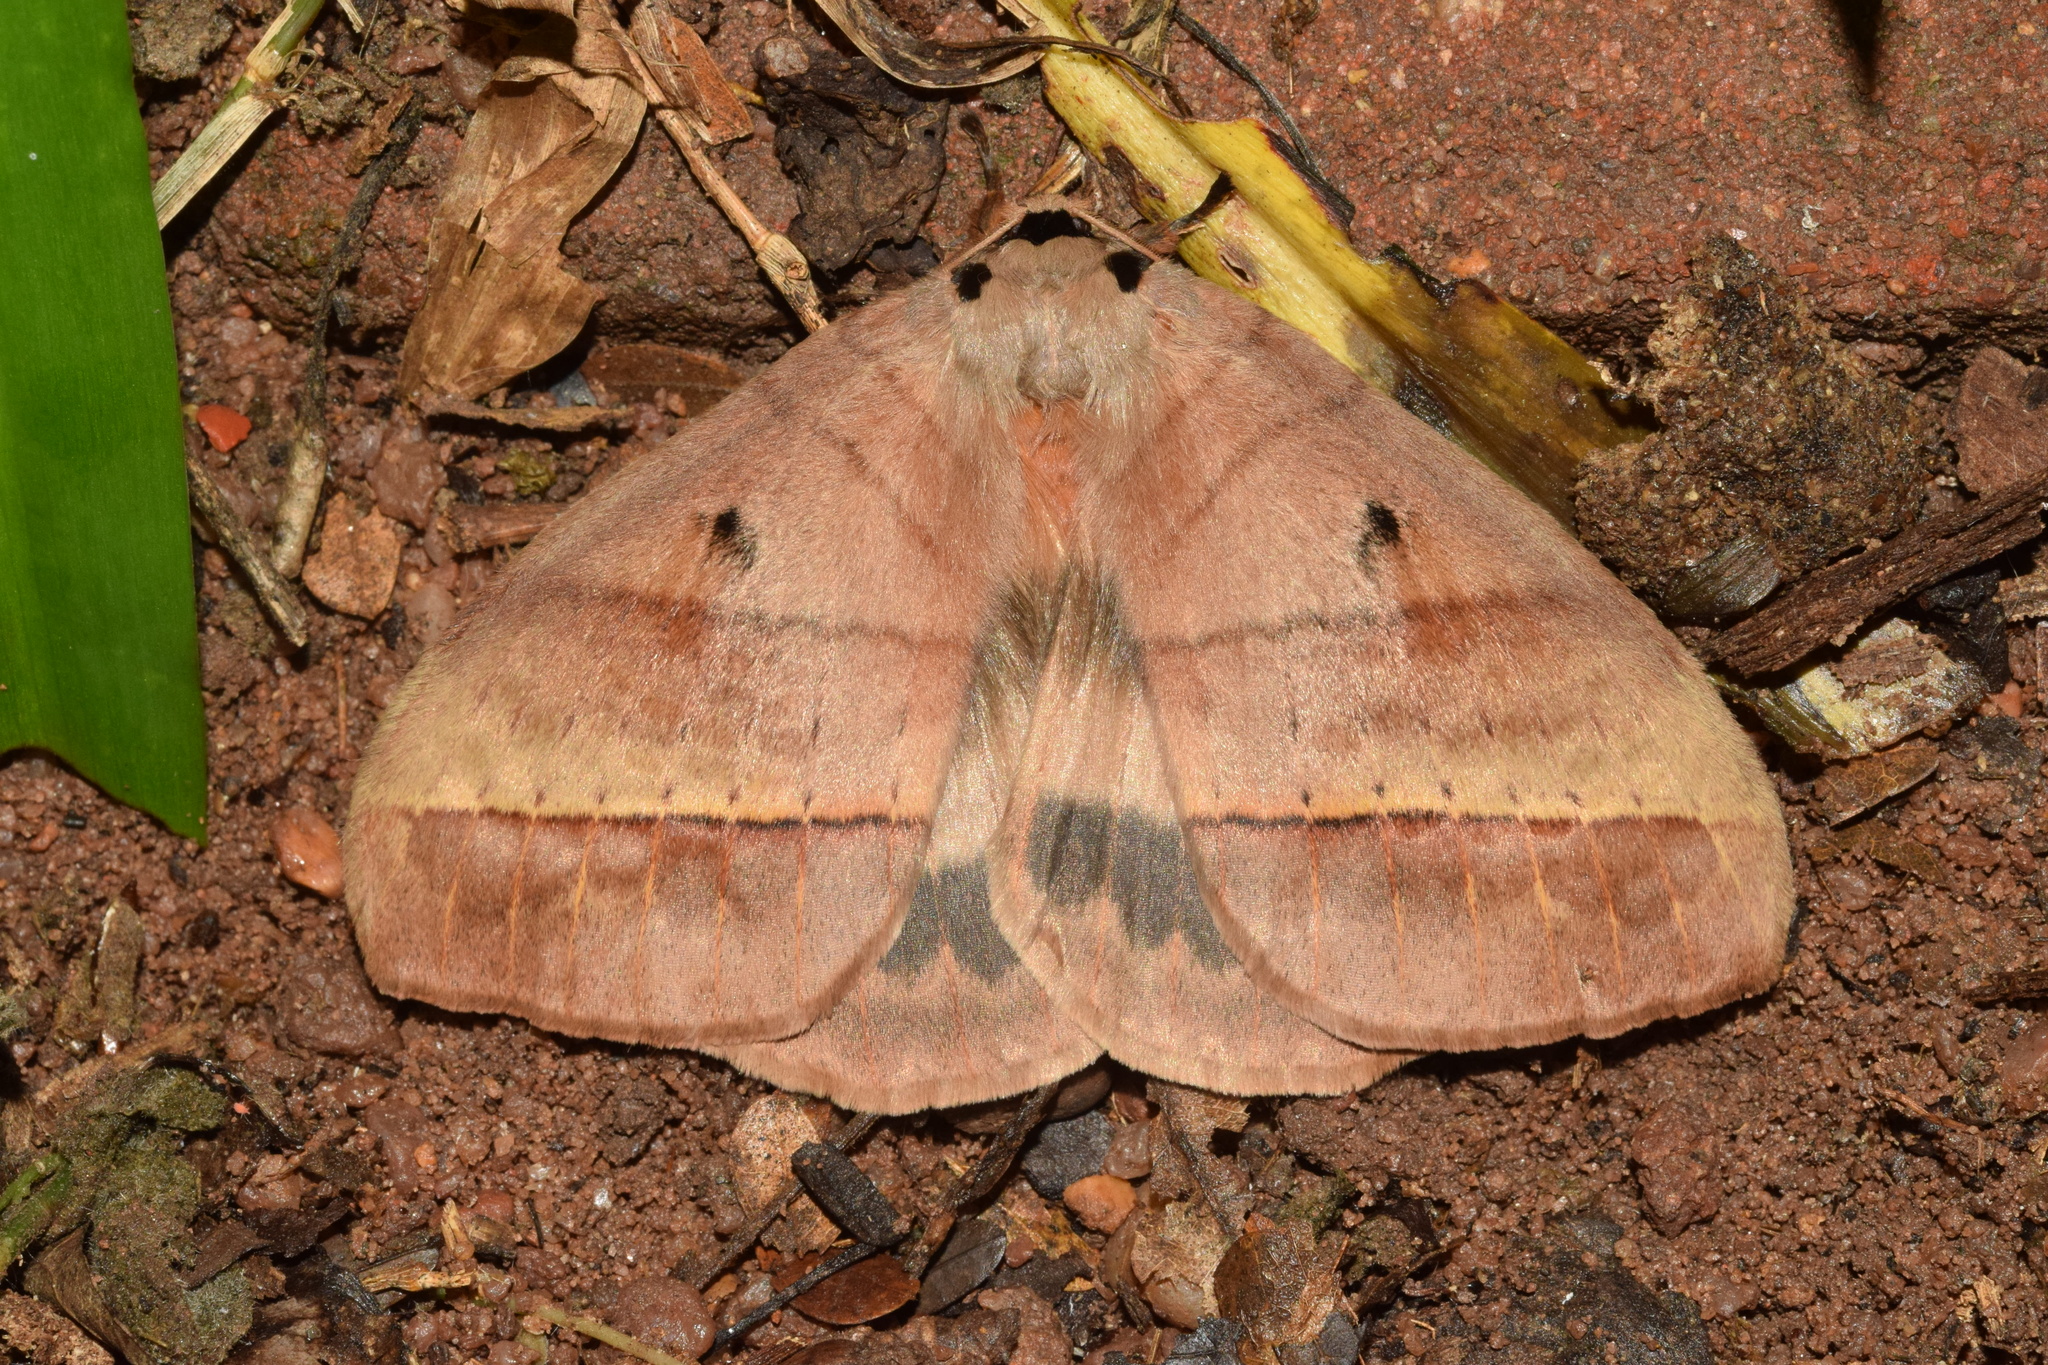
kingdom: Animalia
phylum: Arthropoda
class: Insecta
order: Lepidoptera
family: Eupterotidae
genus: Jana
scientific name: Jana eurymas
